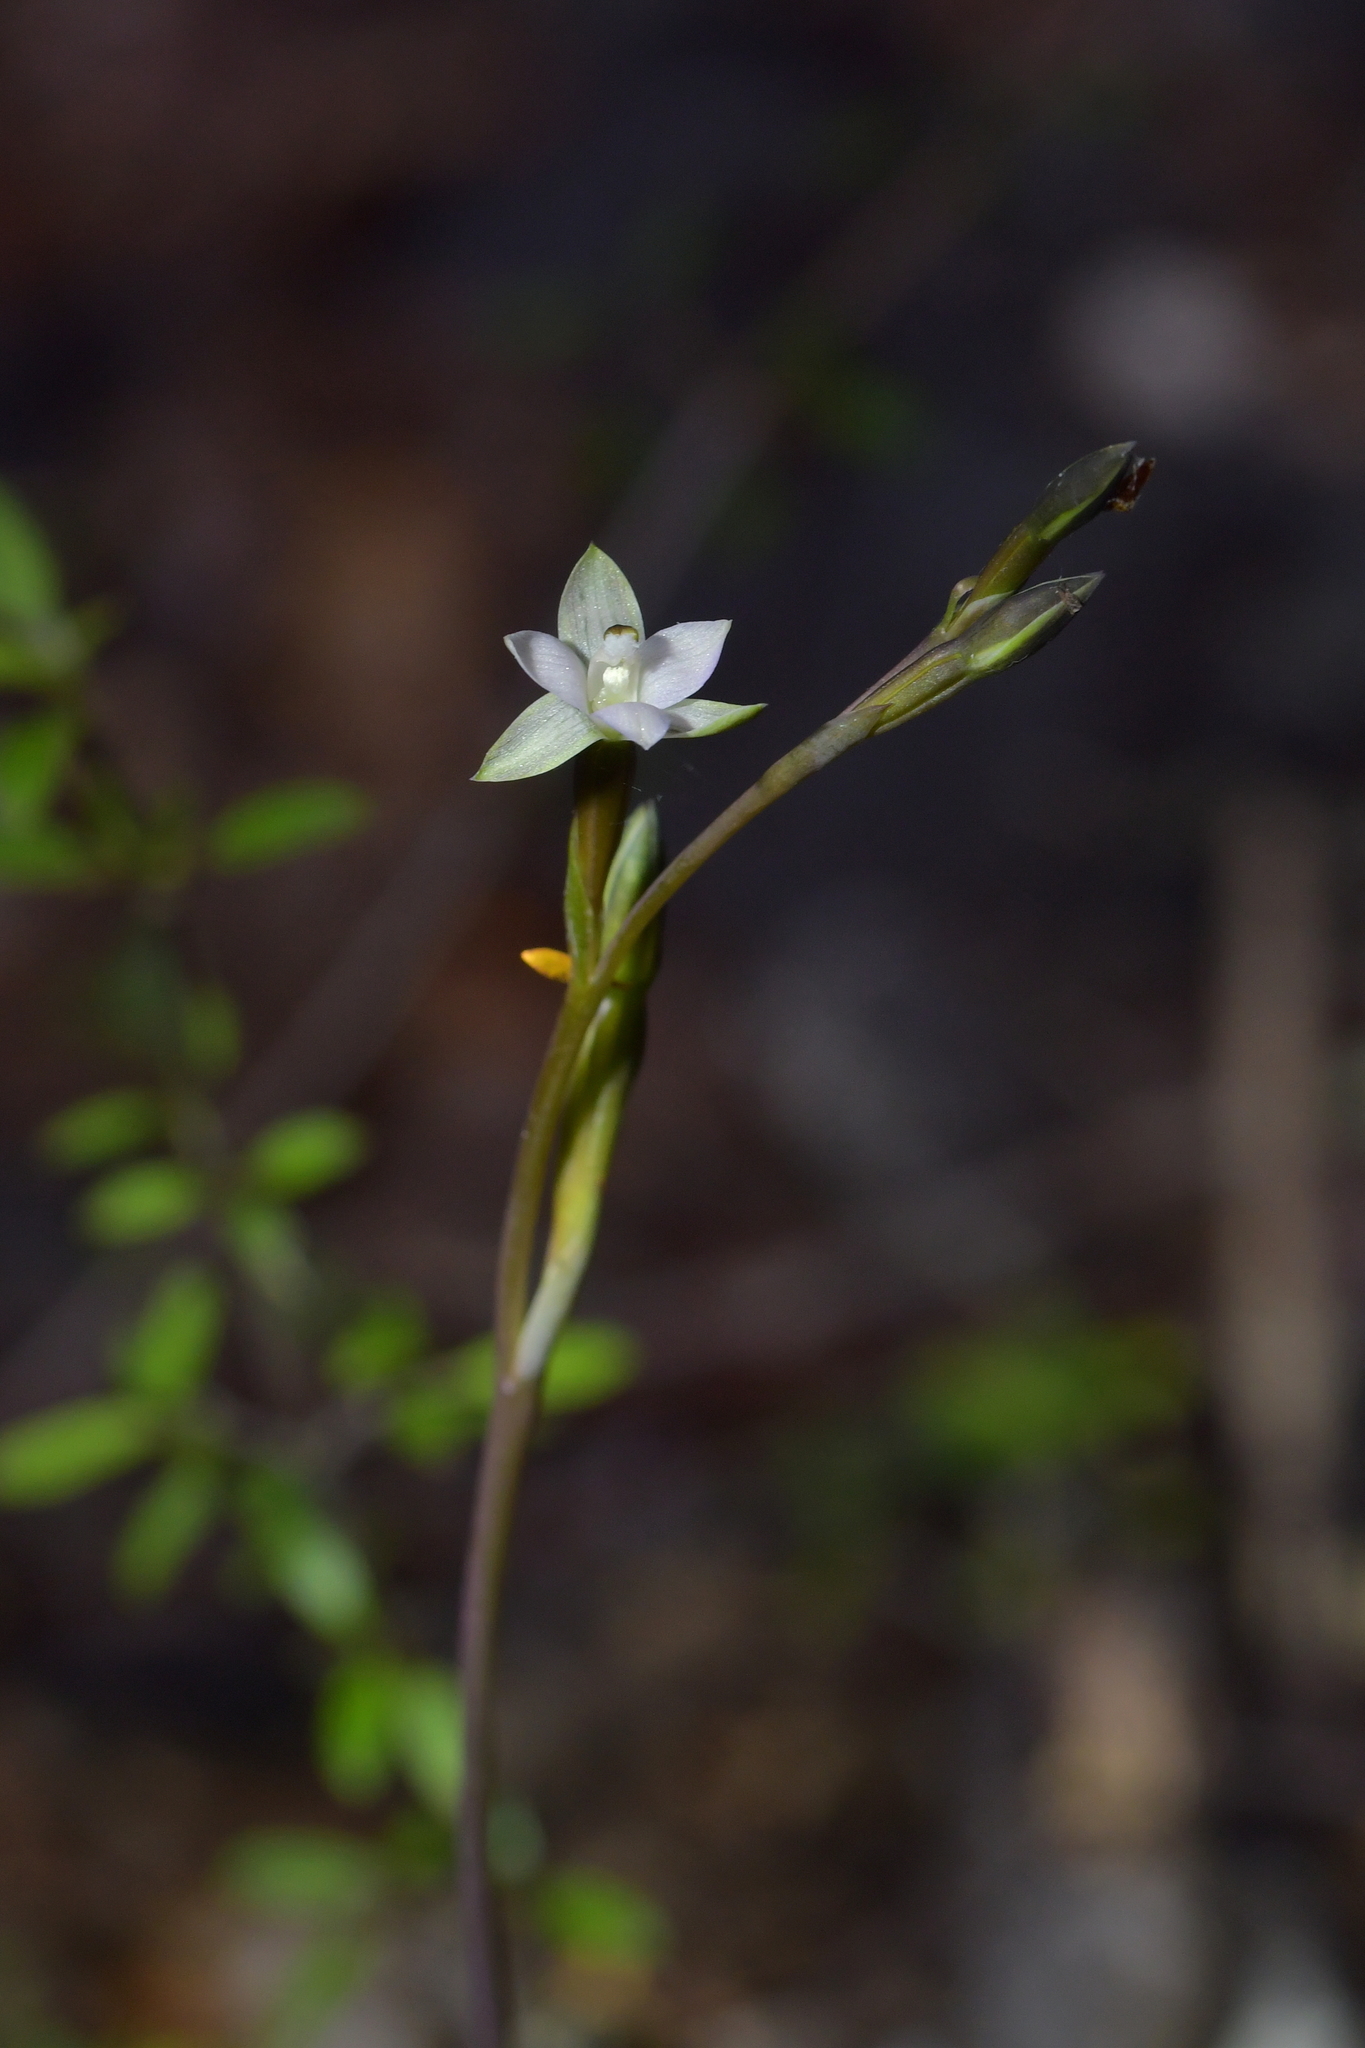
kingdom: Plantae
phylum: Tracheophyta
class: Liliopsida
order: Asparagales
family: Orchidaceae
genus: Thelymitra
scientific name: Thelymitra purpureofusca
